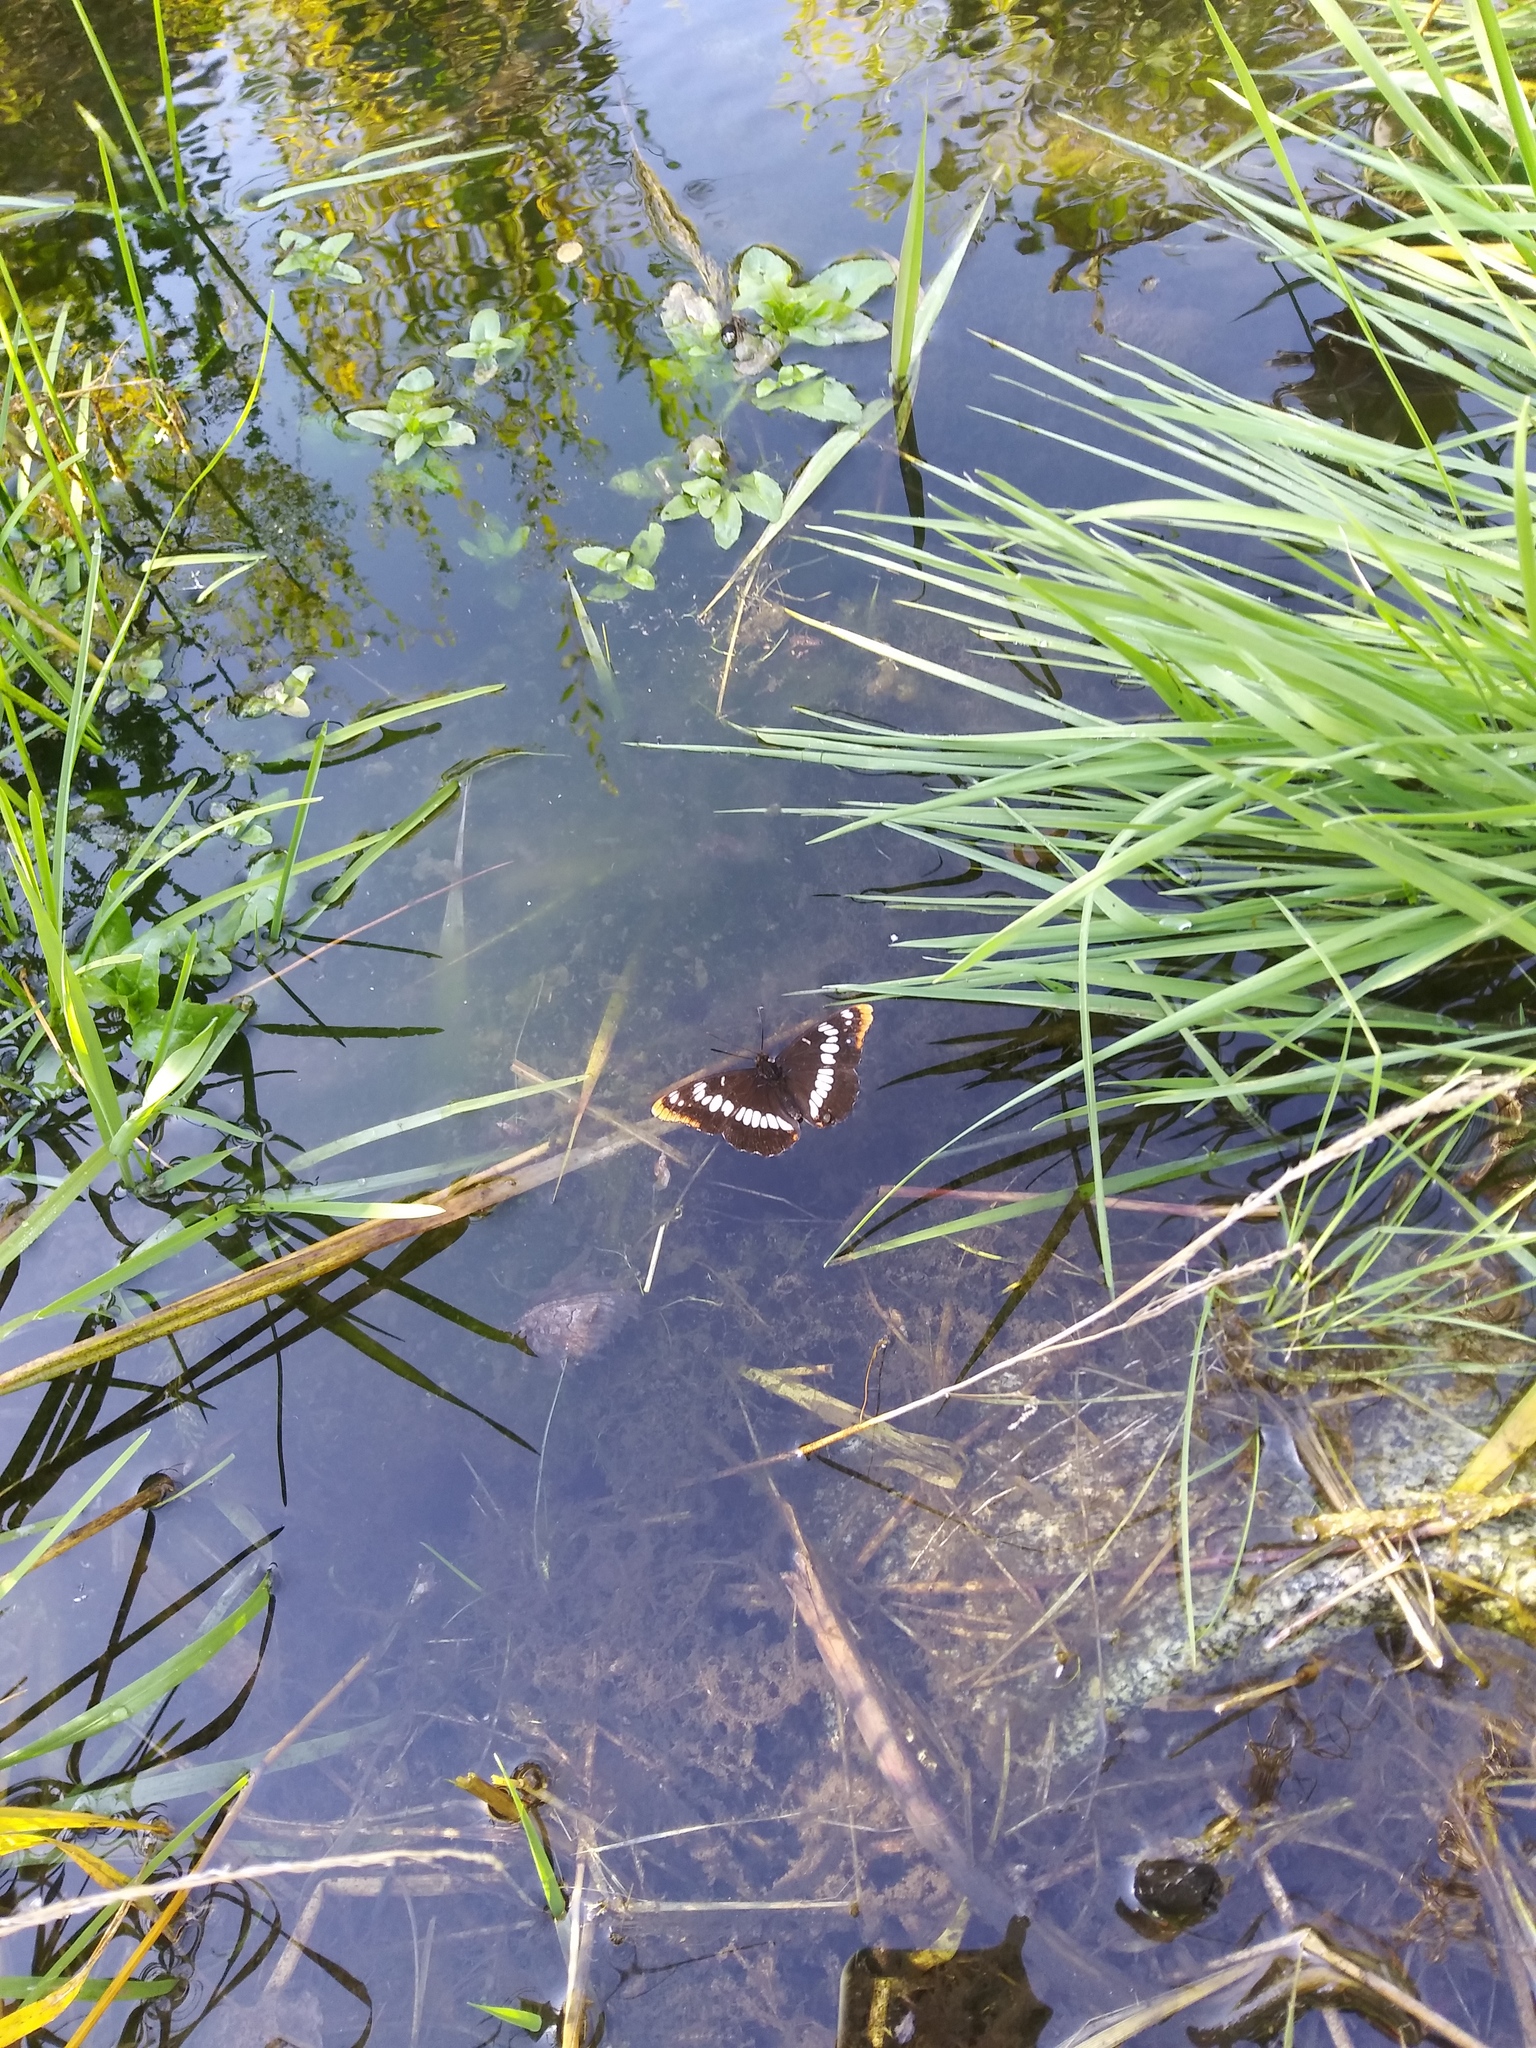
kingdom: Animalia
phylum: Arthropoda
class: Insecta
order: Lepidoptera
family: Nymphalidae
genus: Limenitis
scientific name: Limenitis lorquini
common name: Lorquin's admiral
